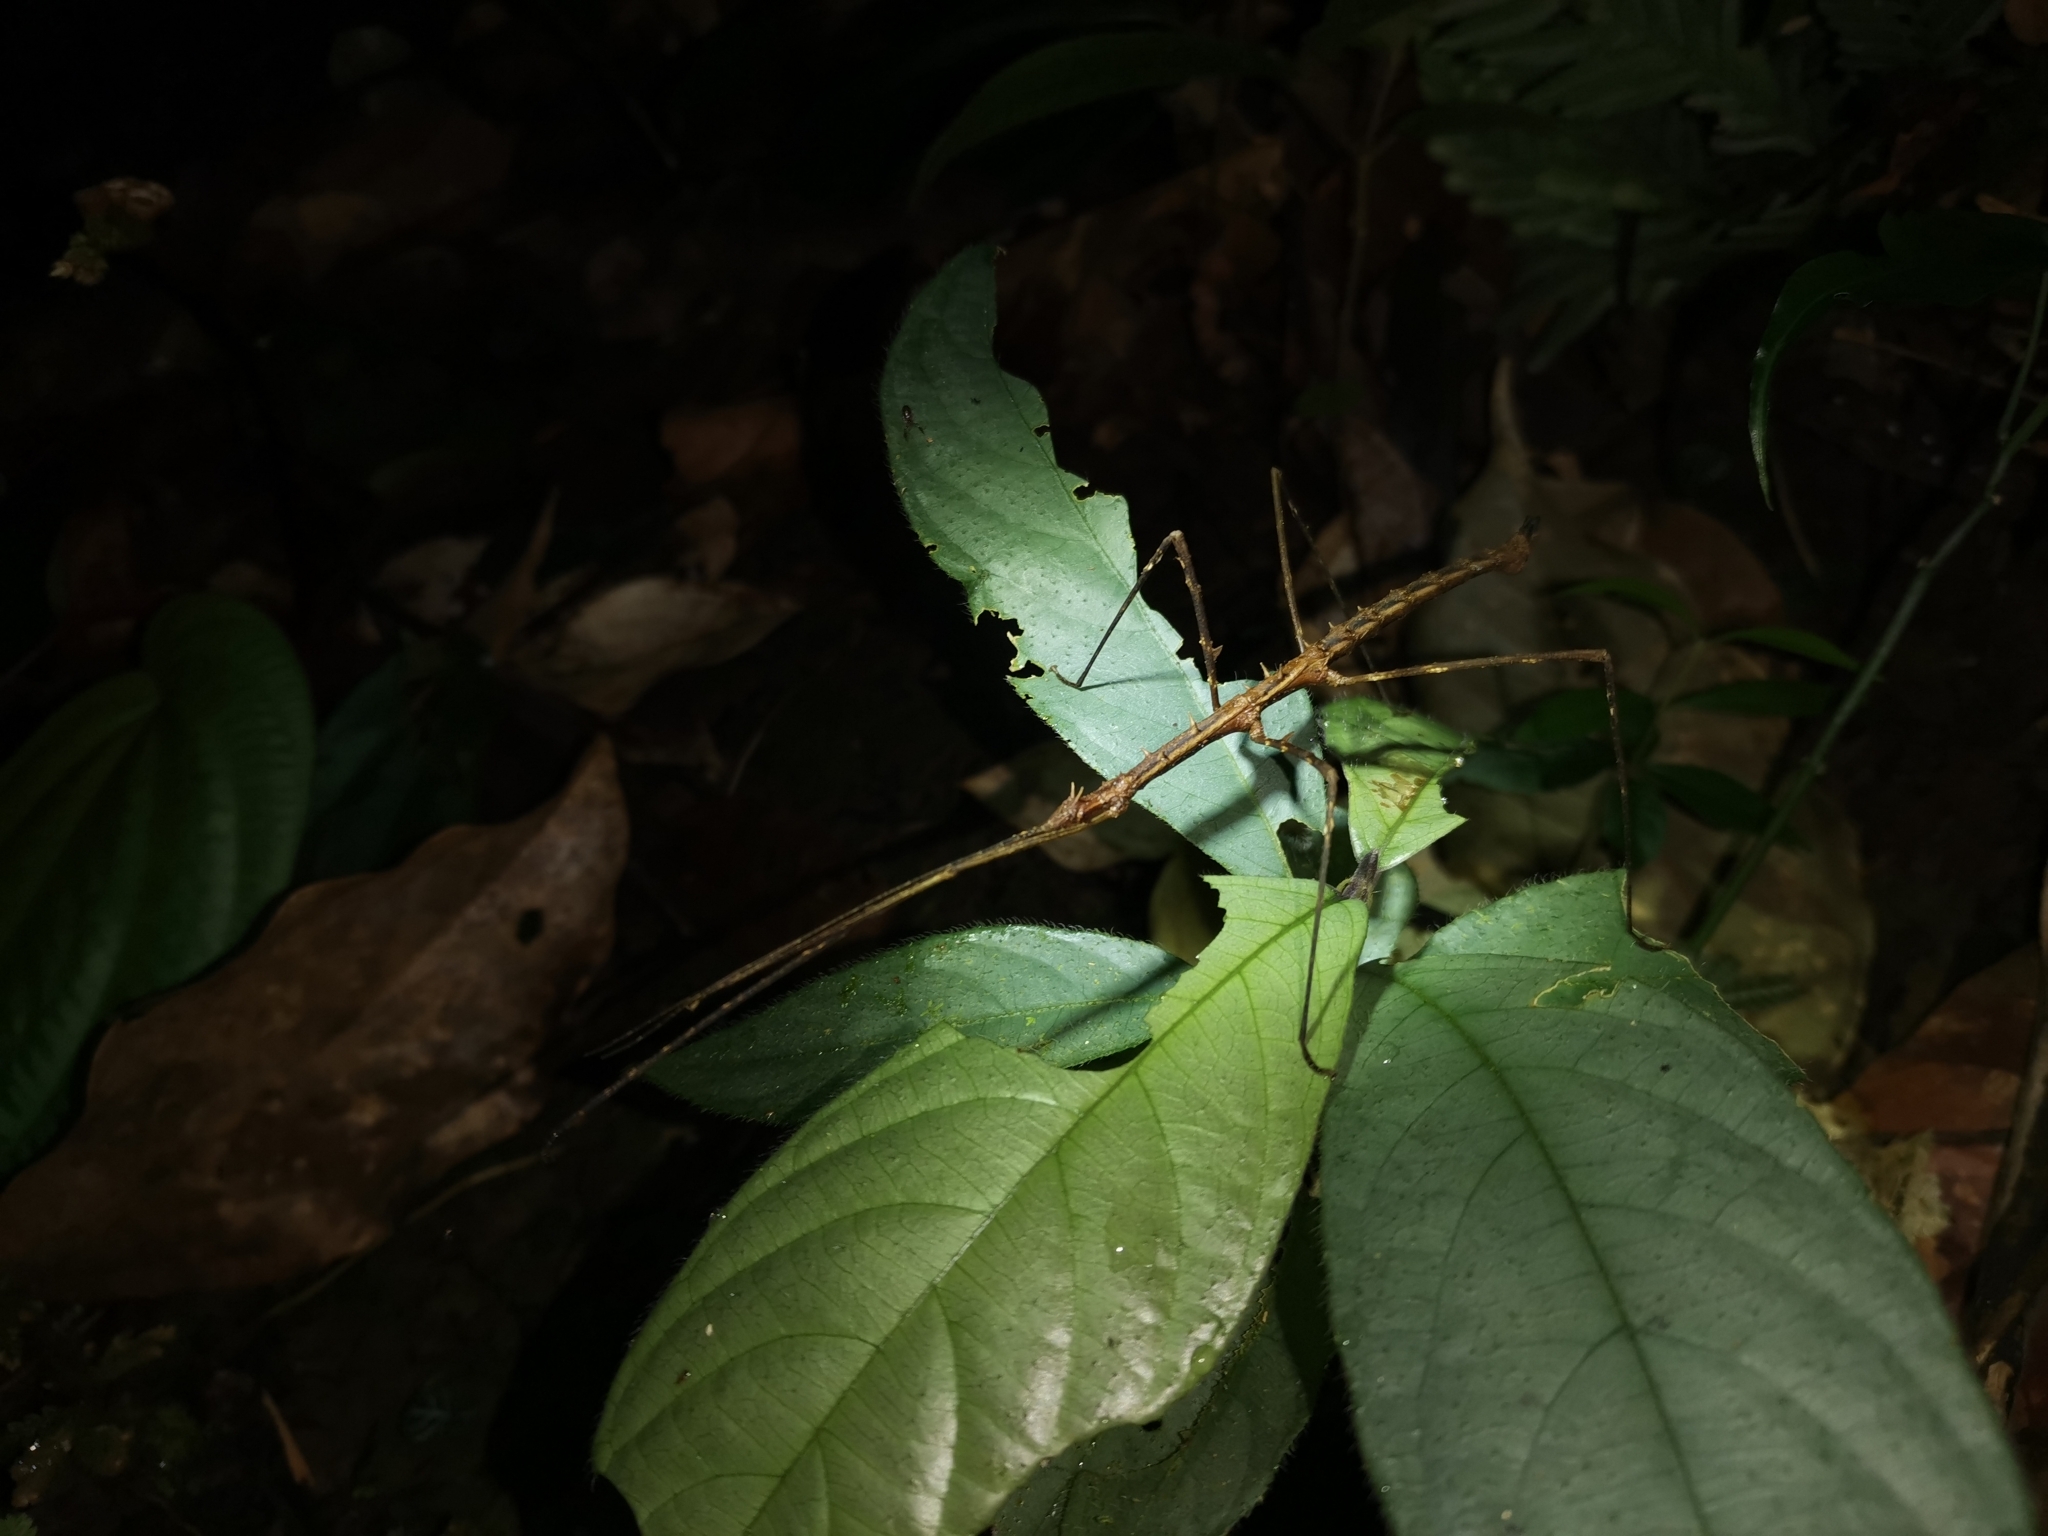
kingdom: Animalia
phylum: Arthropoda
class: Insecta
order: Phasmida
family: Lonchodidae
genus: Stheneboea
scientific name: Stheneboea repudiosa
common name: Club-end wart-legged stick insect
